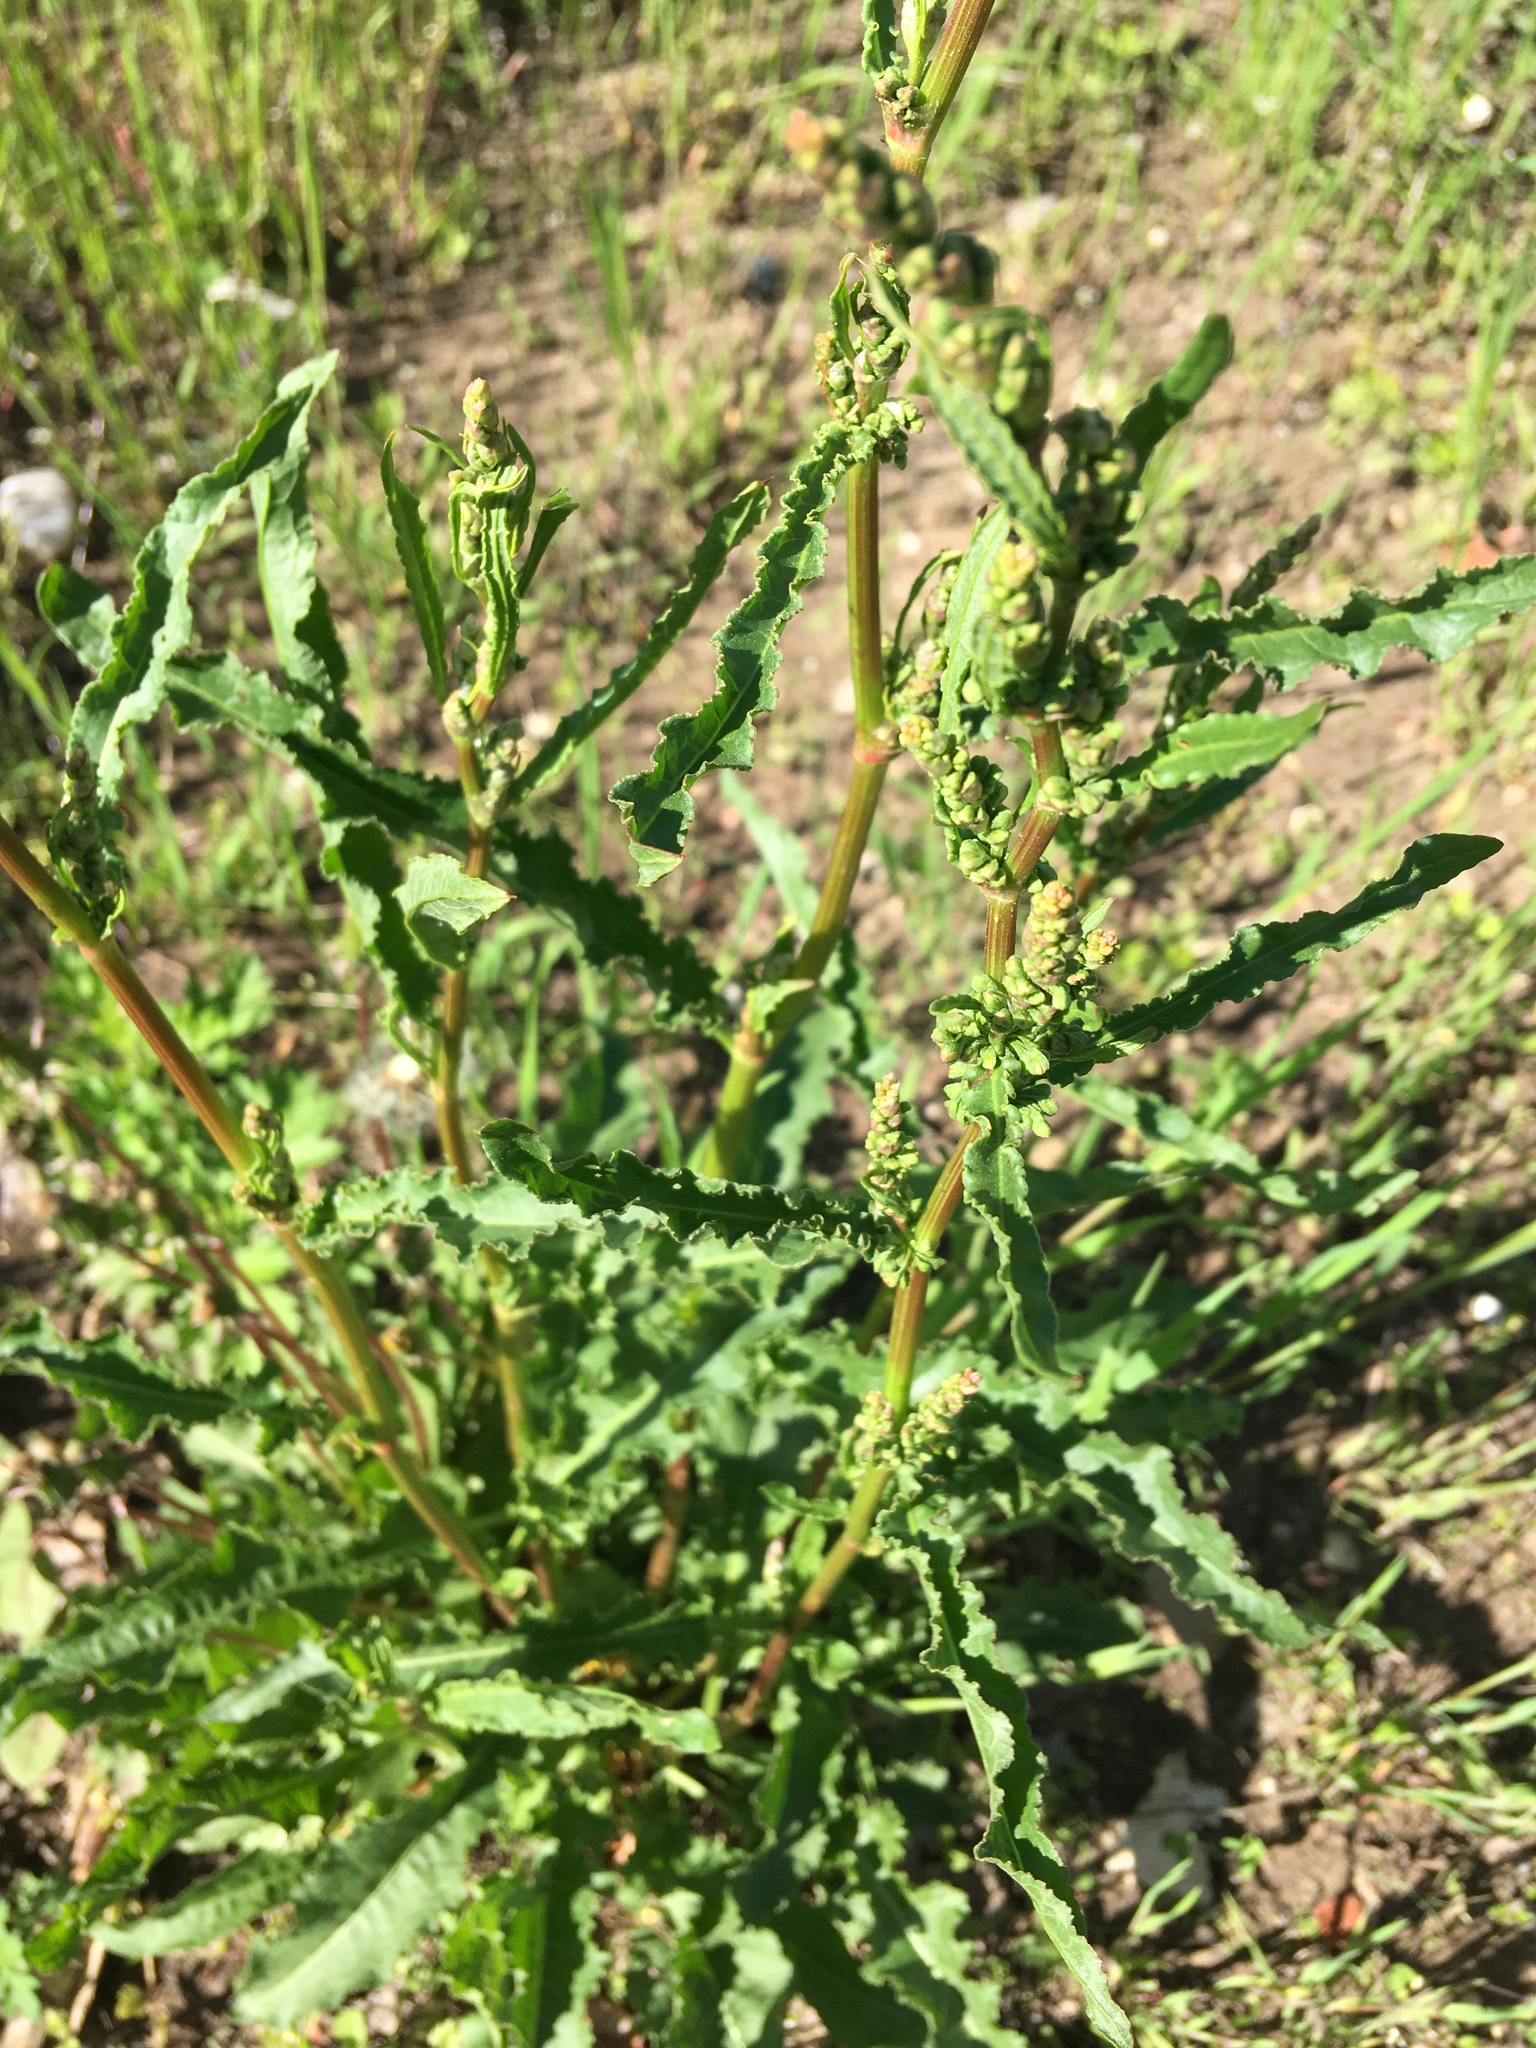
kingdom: Plantae
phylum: Tracheophyta
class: Magnoliopsida
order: Caryophyllales
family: Polygonaceae
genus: Rumex
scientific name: Rumex crispus
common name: Curled dock
